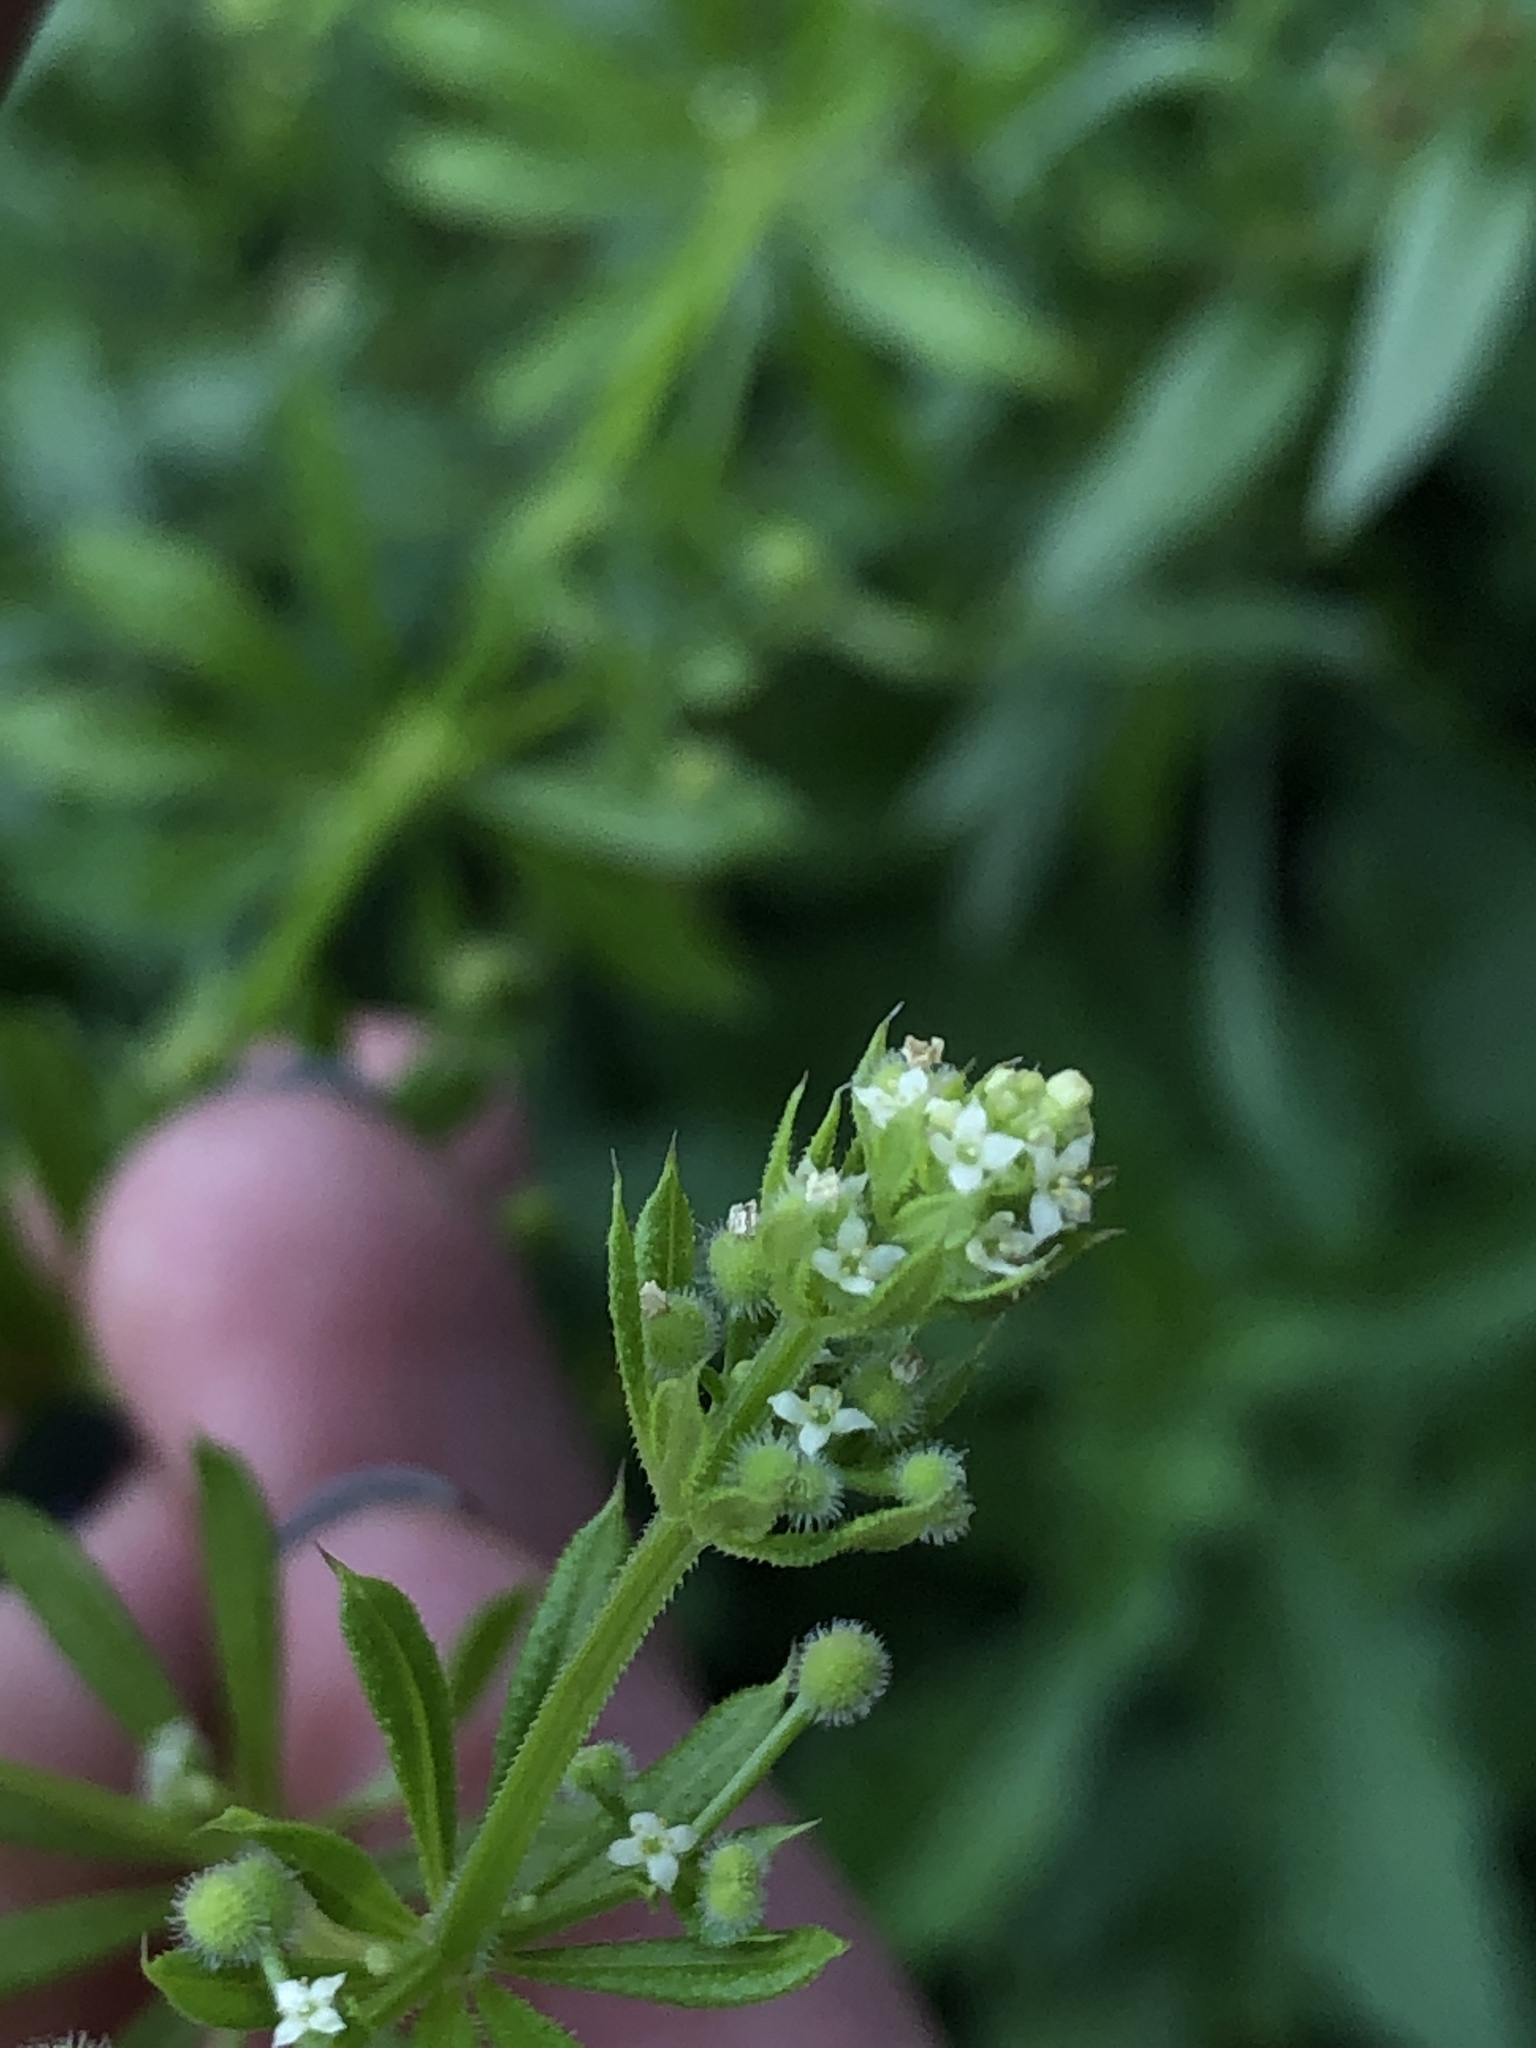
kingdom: Plantae
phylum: Tracheophyta
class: Magnoliopsida
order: Gentianales
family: Rubiaceae
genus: Galium
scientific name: Galium aparine
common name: Cleavers
